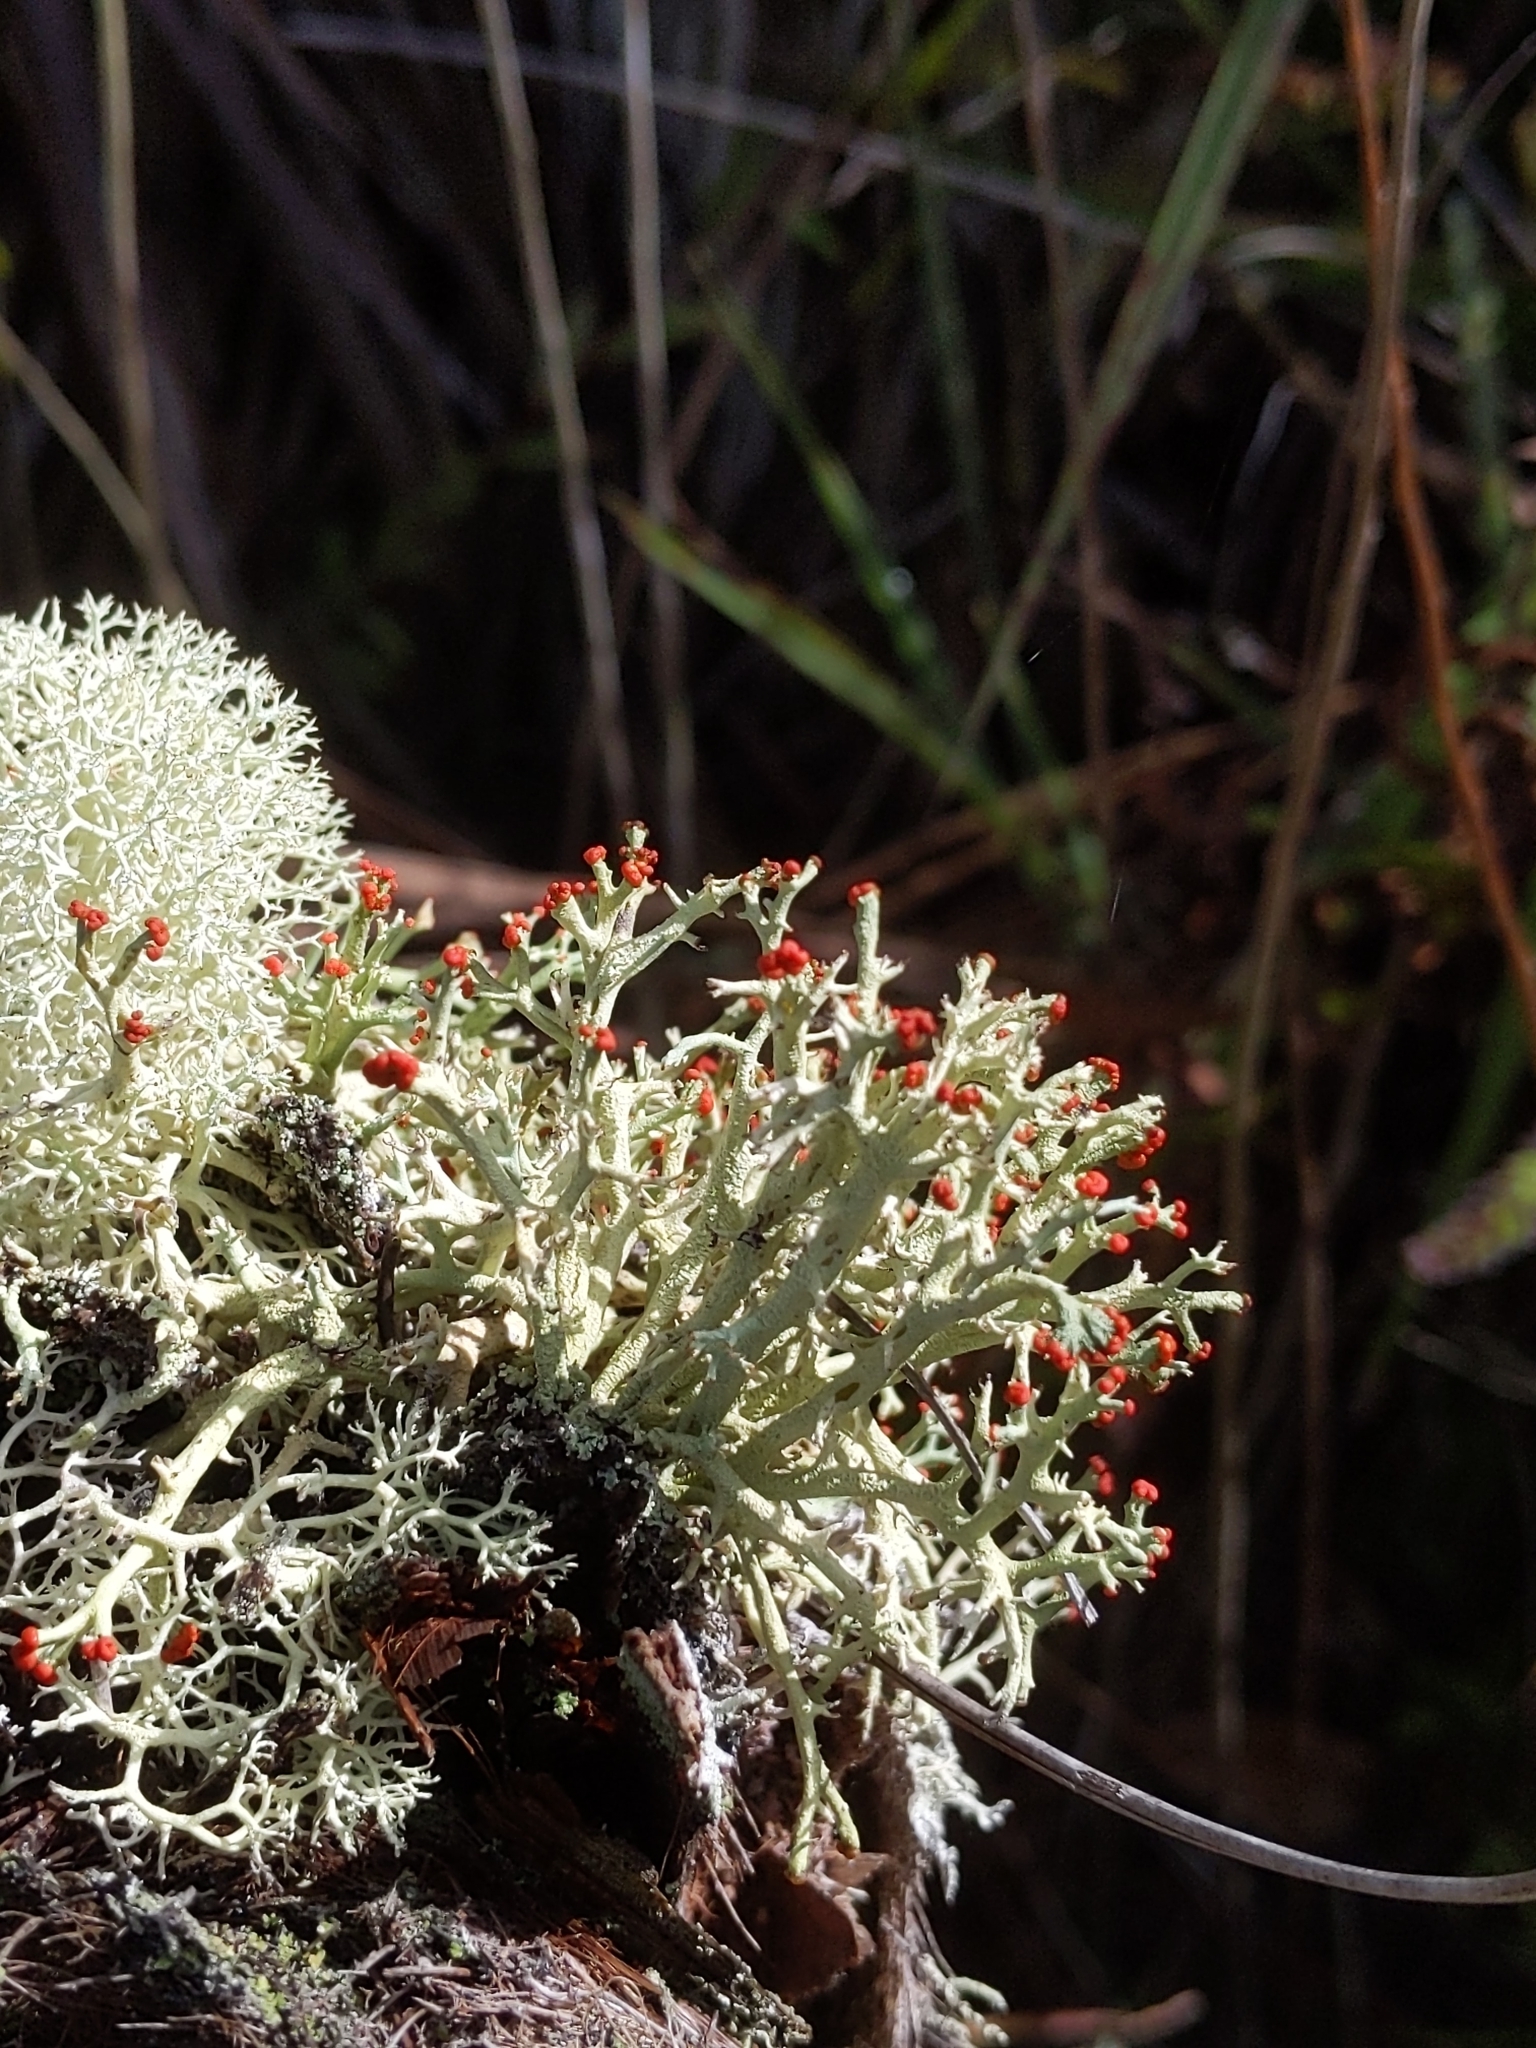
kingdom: Fungi
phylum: Ascomycota
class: Lecanoromycetes
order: Lecanorales
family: Cladoniaceae
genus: Cladonia
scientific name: Cladonia leporina
